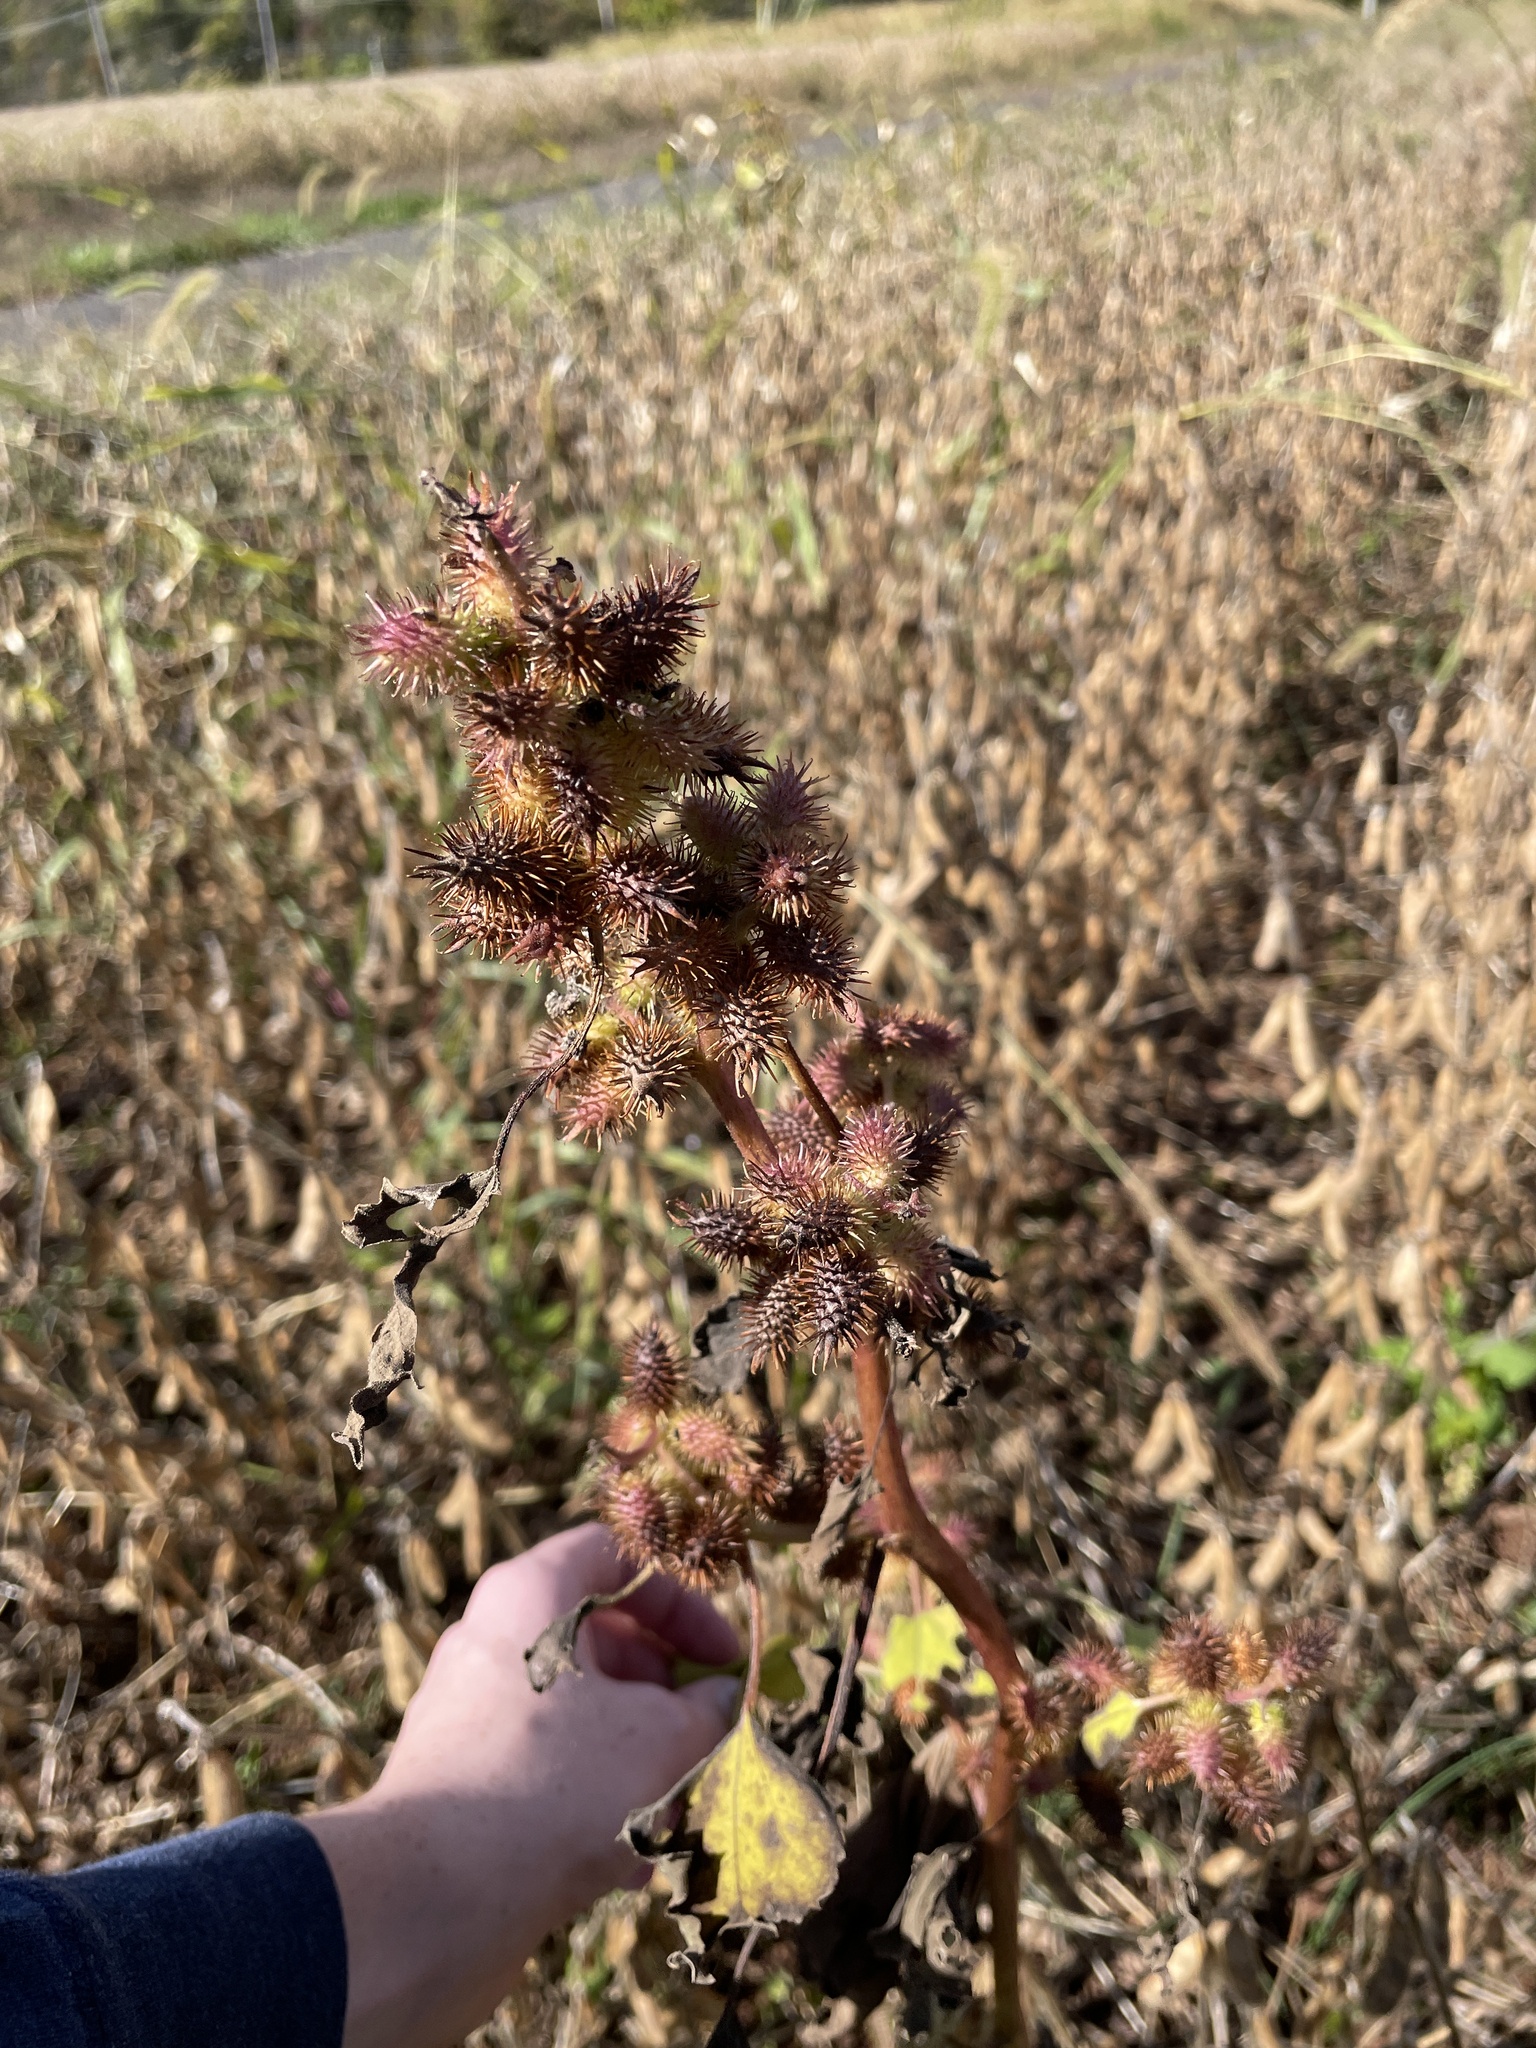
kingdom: Plantae
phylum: Tracheophyta
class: Magnoliopsida
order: Asterales
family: Asteraceae
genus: Xanthium
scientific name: Xanthium strumarium
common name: Rough cocklebur
